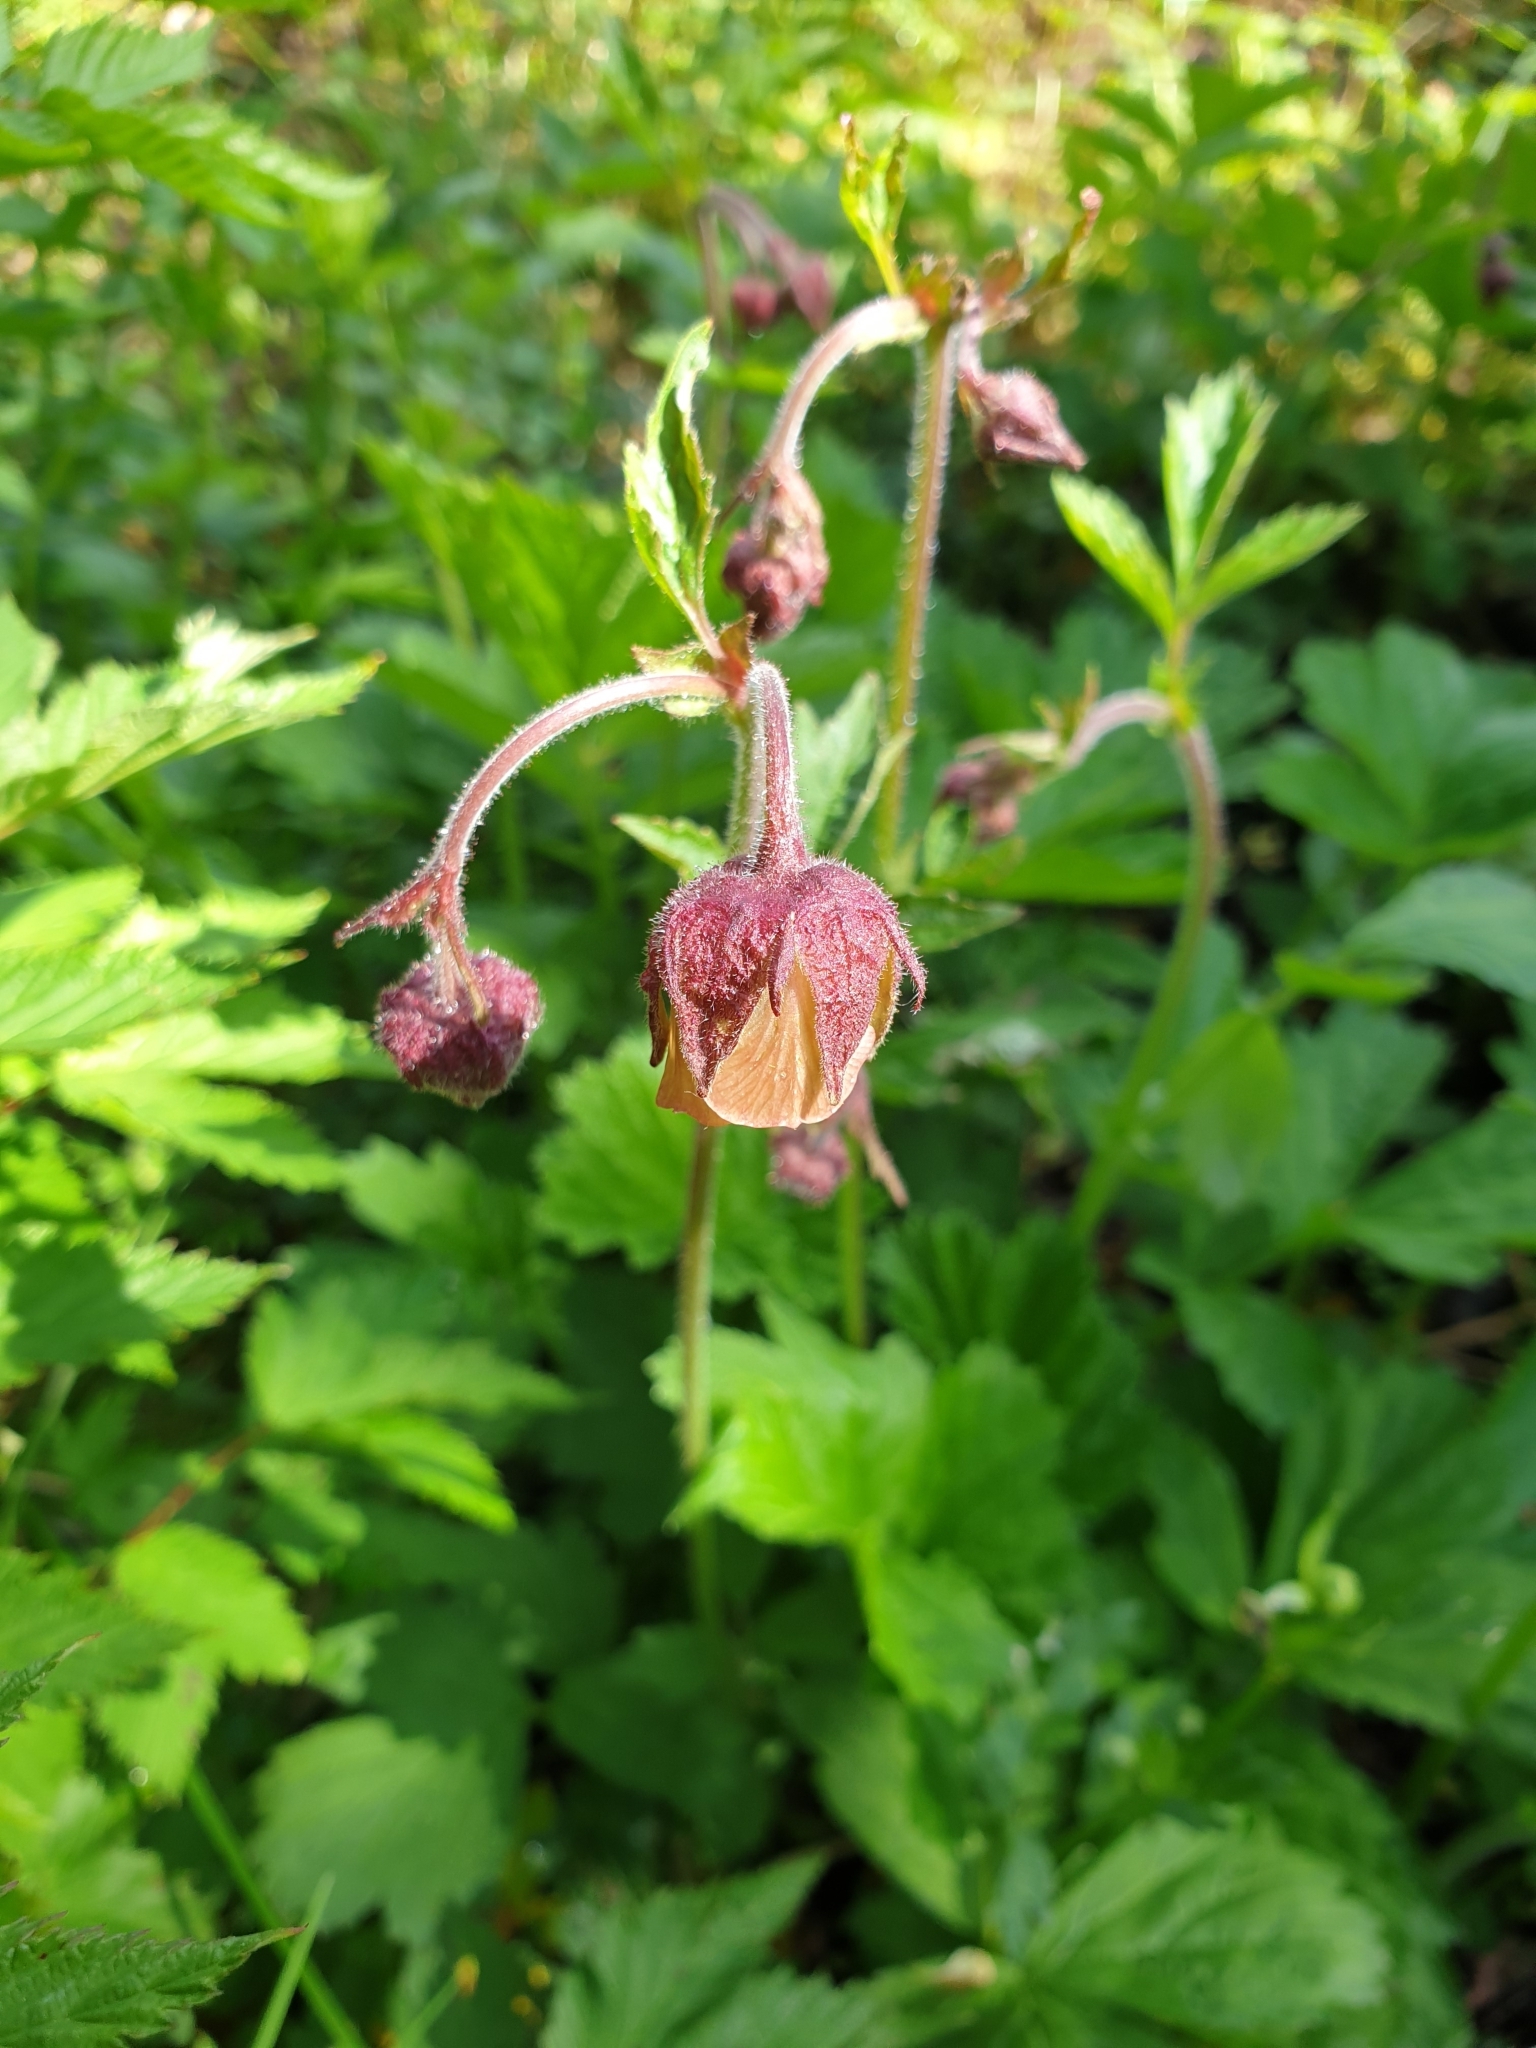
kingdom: Plantae
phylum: Tracheophyta
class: Magnoliopsida
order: Rosales
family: Rosaceae
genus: Geum
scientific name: Geum rivale
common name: Water avens
